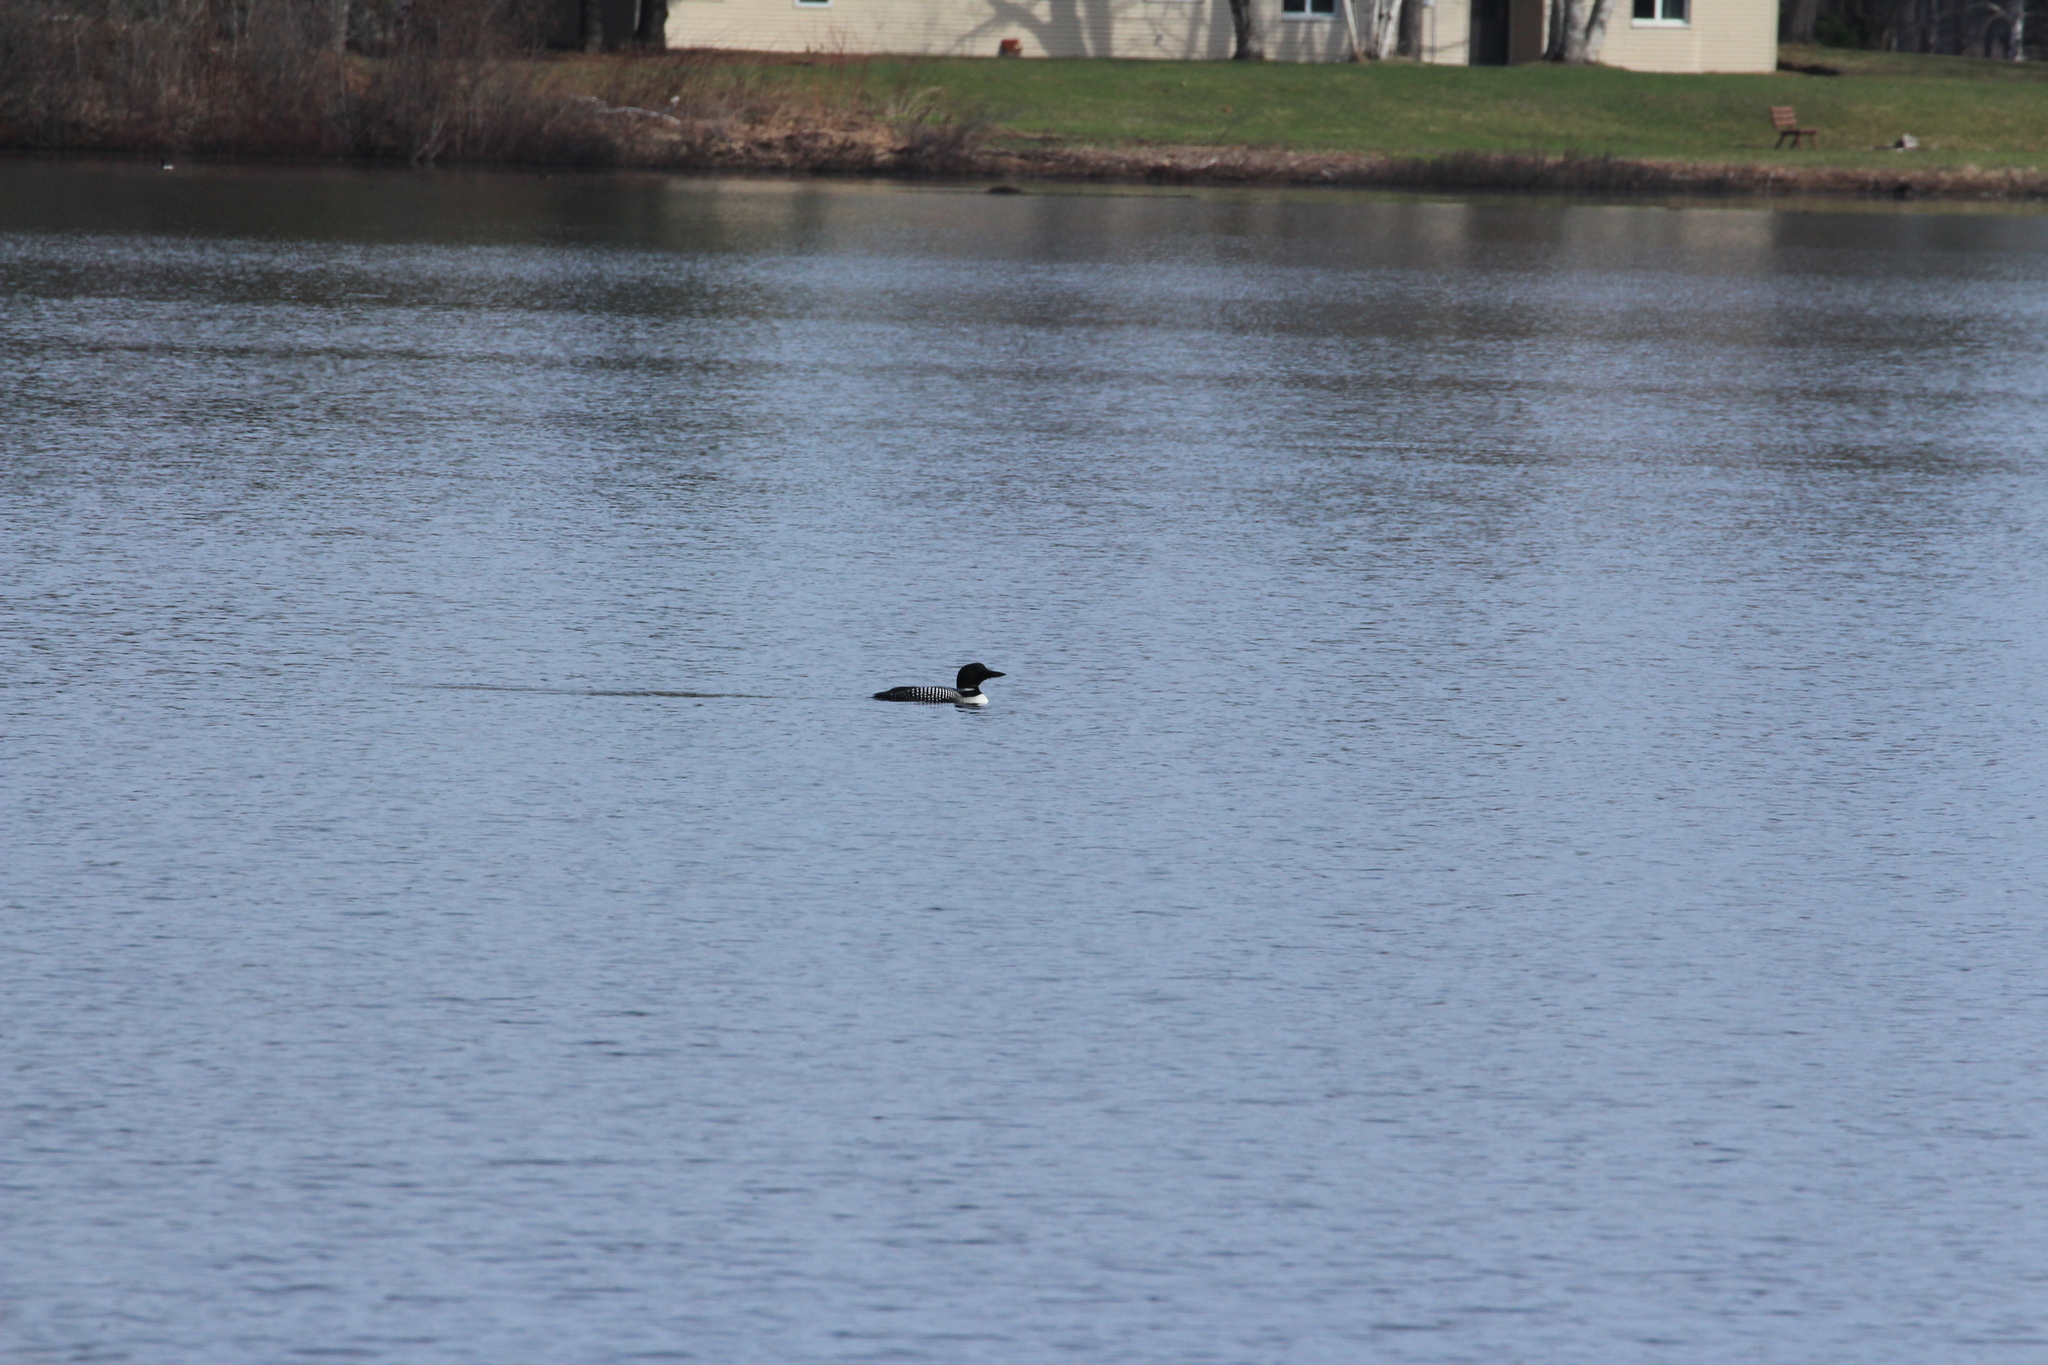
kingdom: Animalia
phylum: Chordata
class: Aves
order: Gaviiformes
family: Gaviidae
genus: Gavia
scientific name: Gavia immer
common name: Common loon
